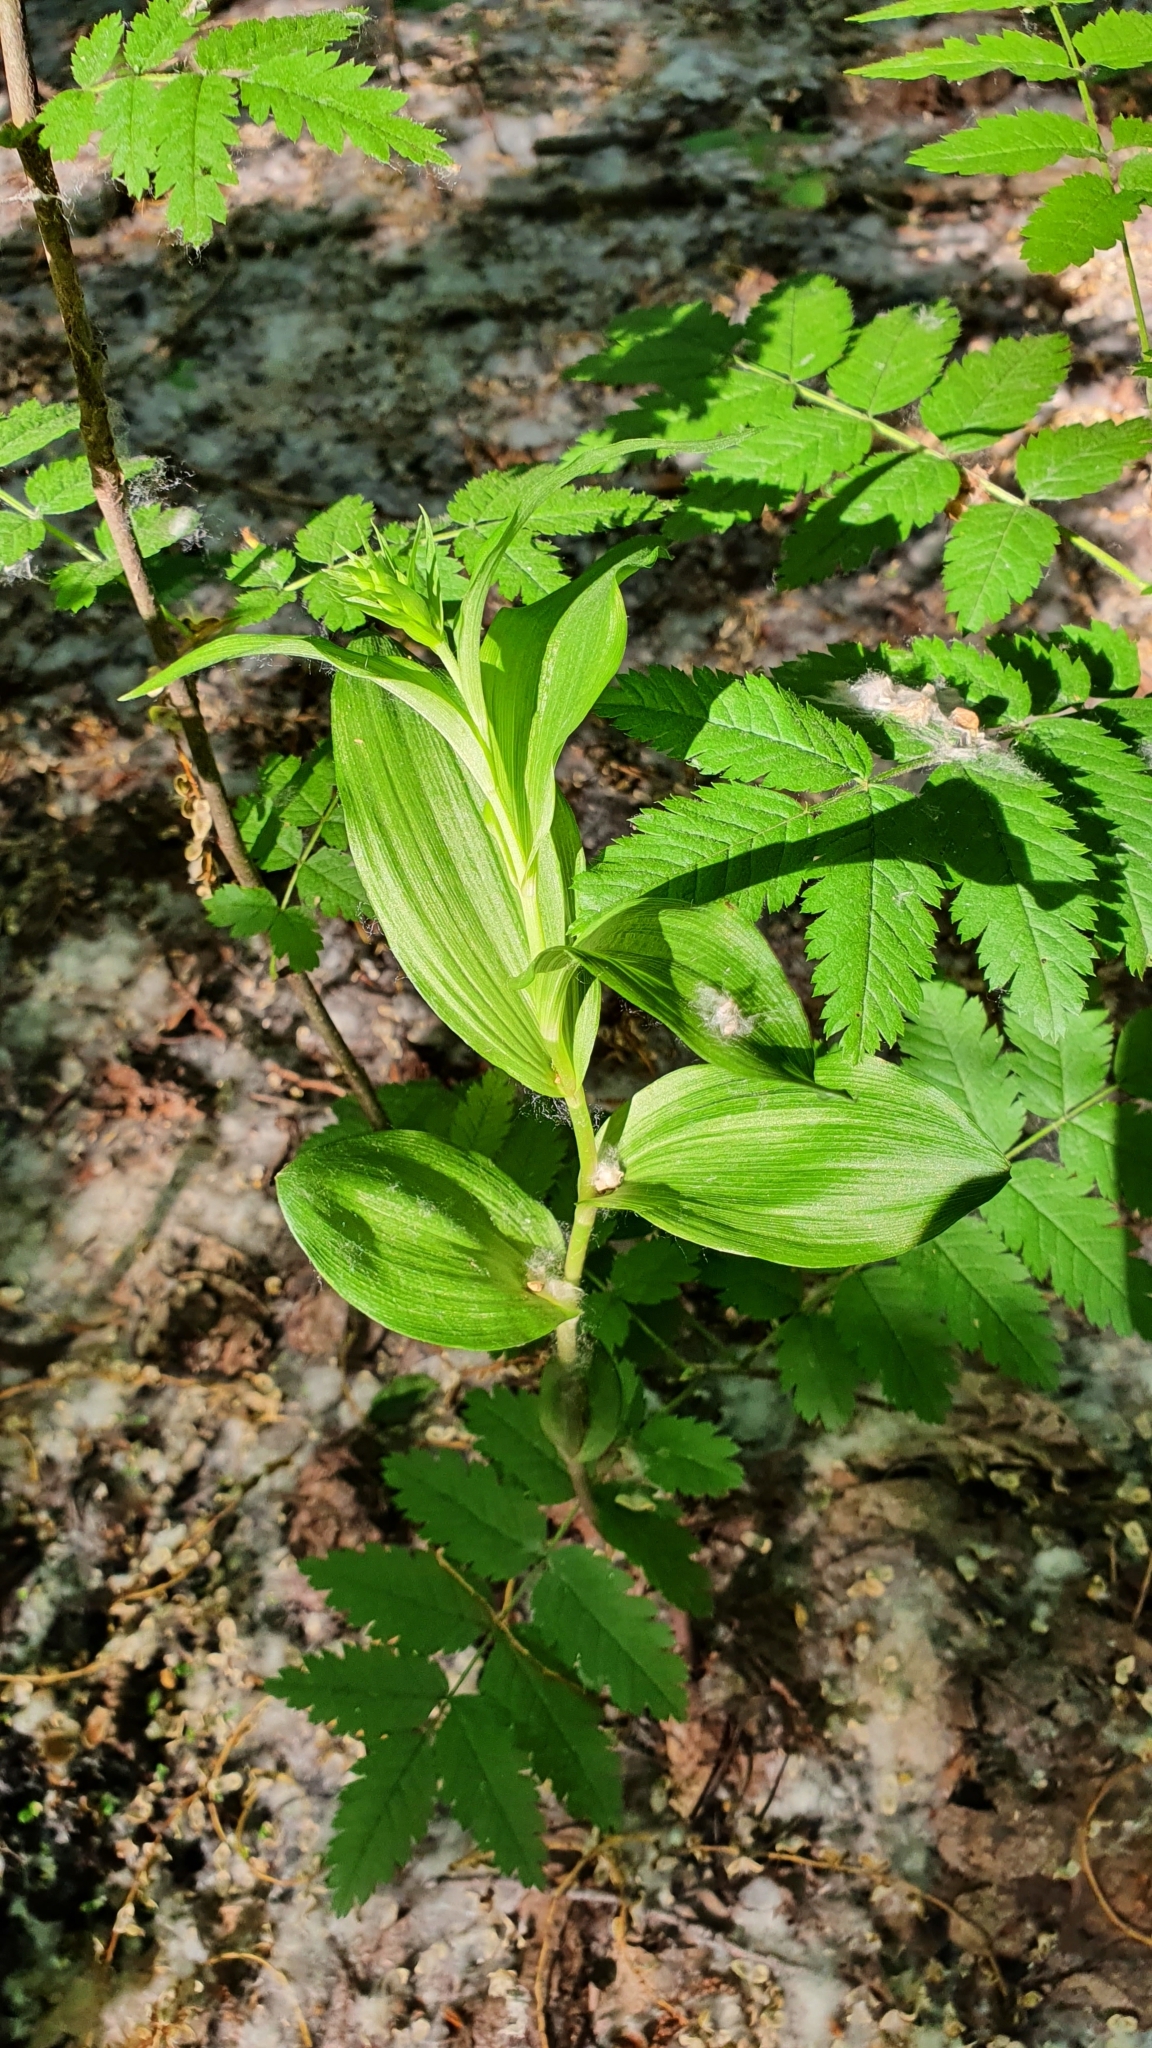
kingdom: Plantae
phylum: Tracheophyta
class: Liliopsida
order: Asparagales
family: Orchidaceae
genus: Epipactis
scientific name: Epipactis helleborine
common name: Broad-leaved helleborine
